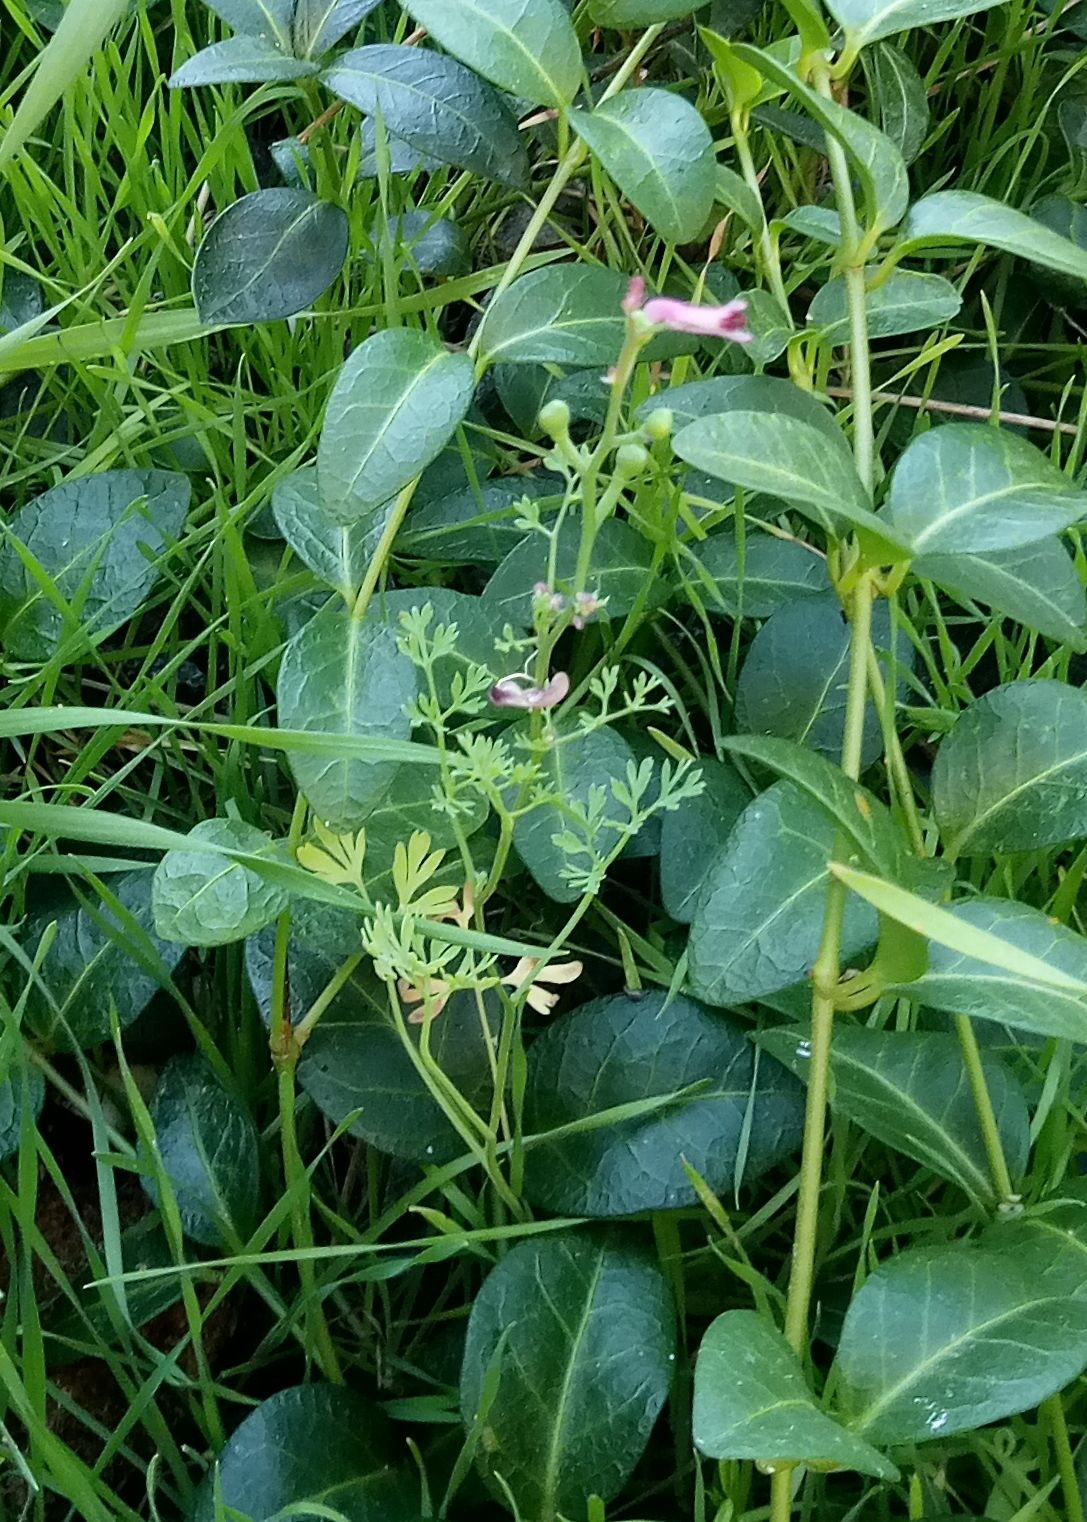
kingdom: Plantae
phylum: Tracheophyta
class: Magnoliopsida
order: Ranunculales
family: Papaveraceae
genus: Fumaria
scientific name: Fumaria officinalis
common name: Common fumitory
